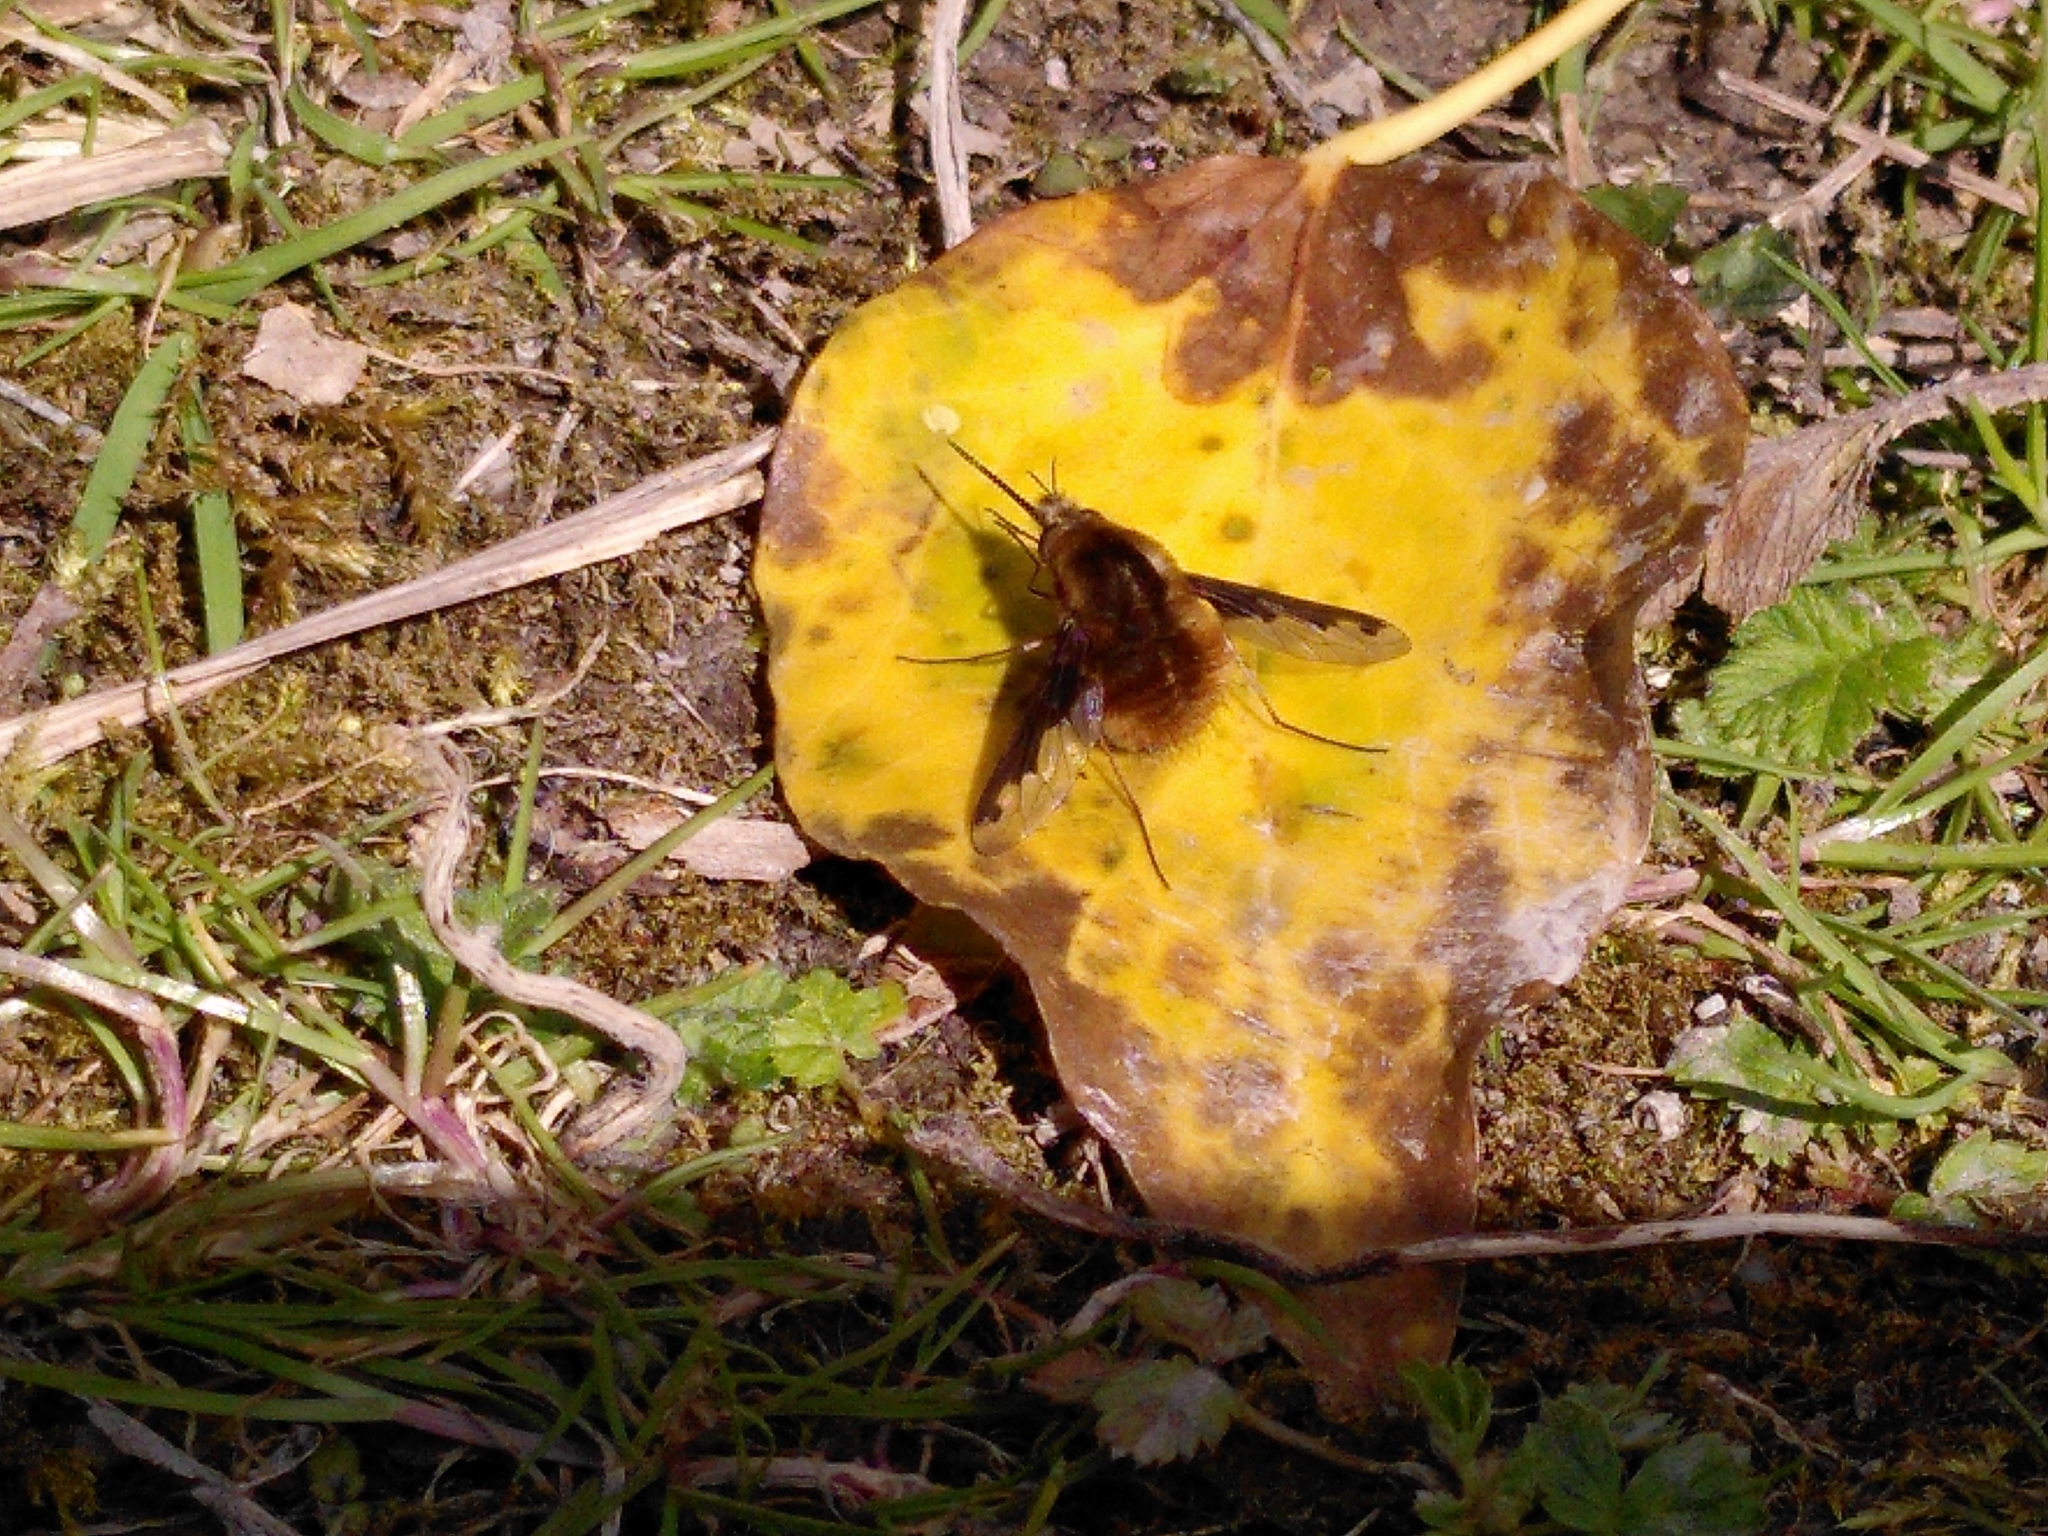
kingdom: Animalia
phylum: Arthropoda
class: Insecta
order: Diptera
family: Bombyliidae
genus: Bombylius
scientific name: Bombylius major
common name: Bee fly
